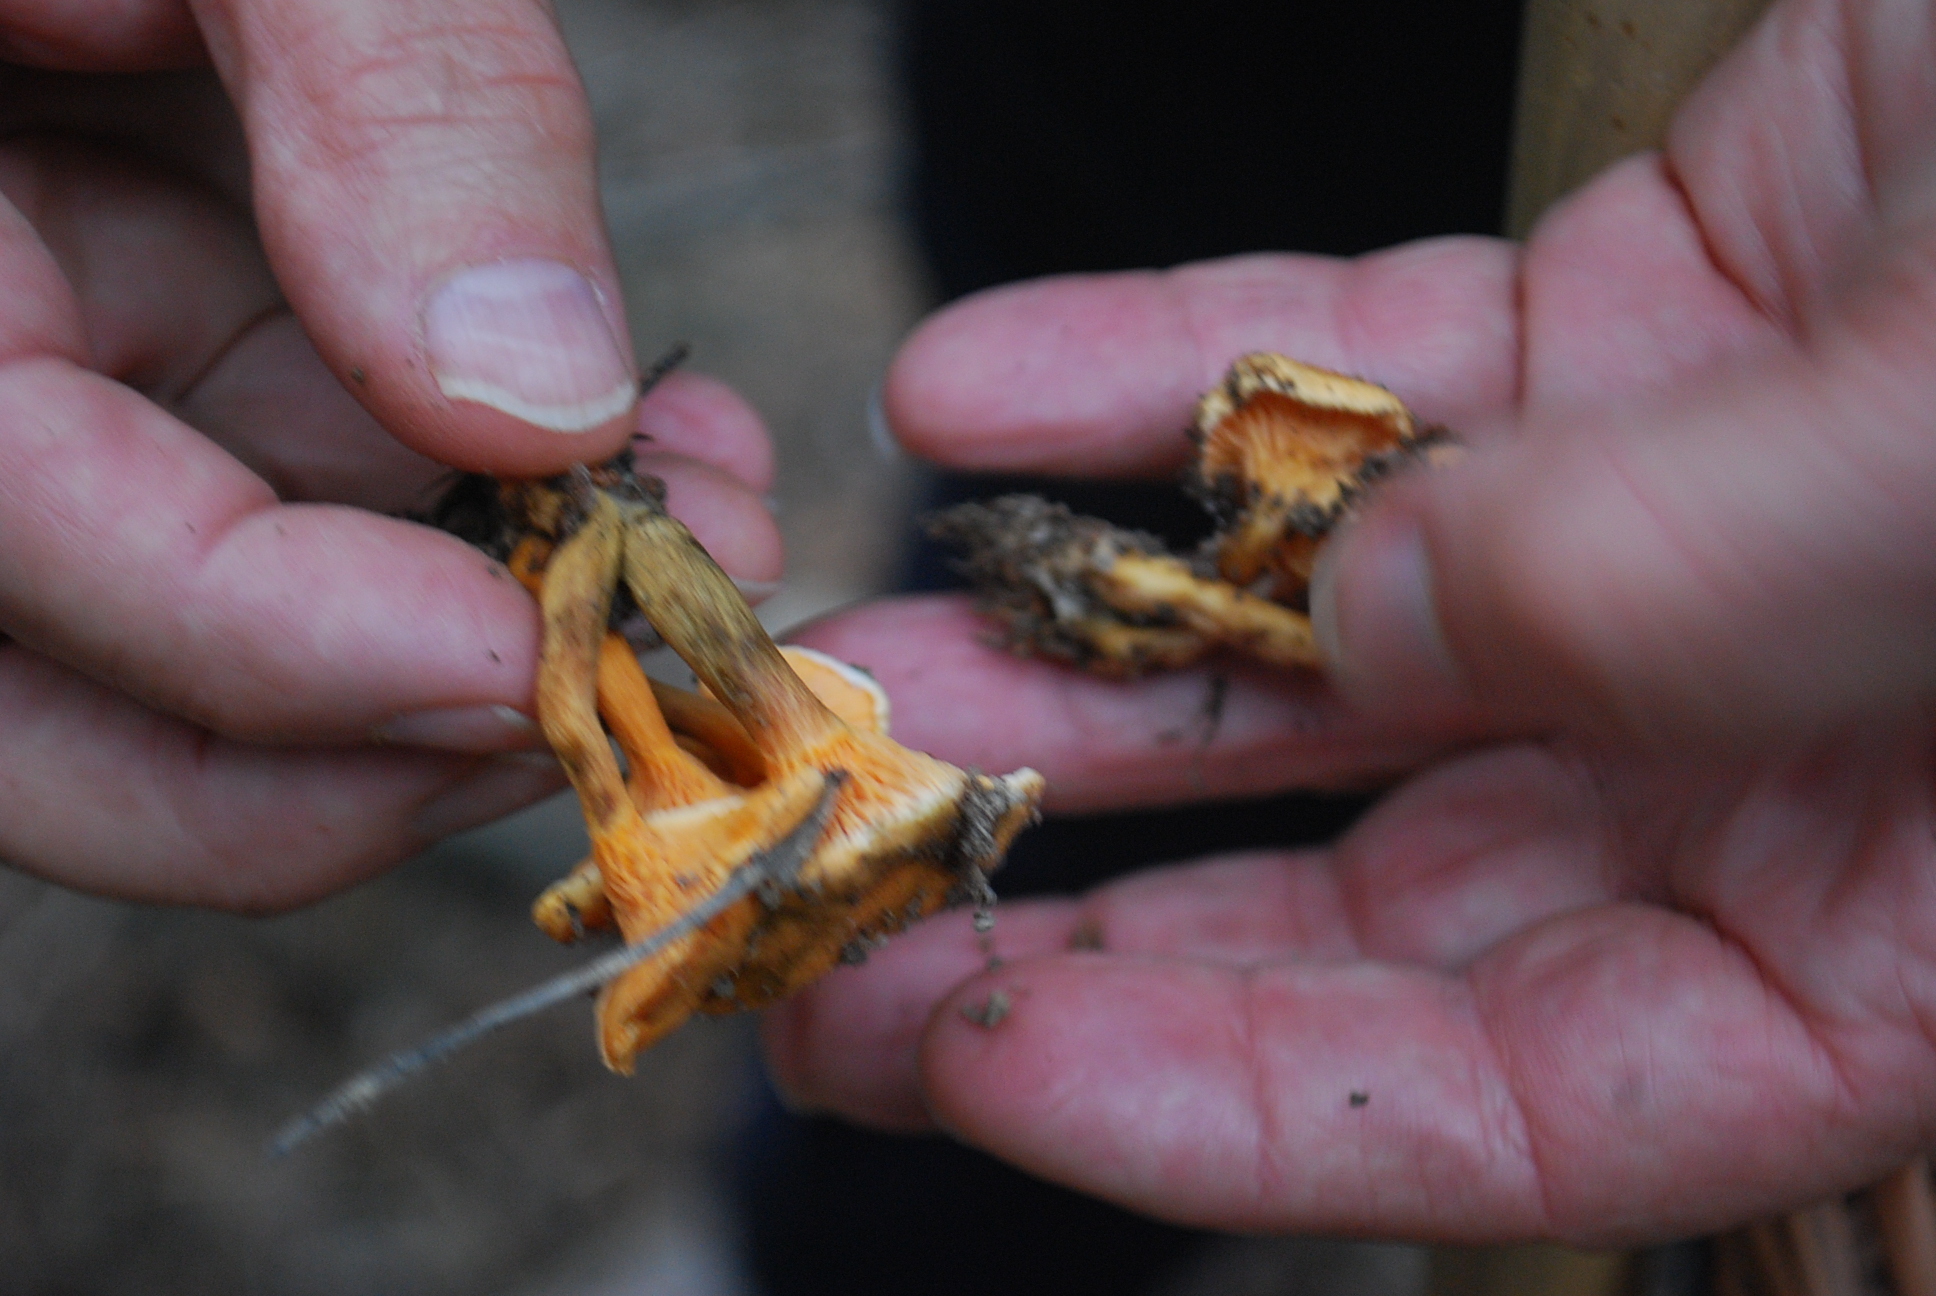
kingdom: Fungi
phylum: Basidiomycota
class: Agaricomycetes
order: Boletales
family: Hygrophoropsidaceae
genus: Hygrophoropsis
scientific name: Hygrophoropsis aurantiaca
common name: False chanterelle
